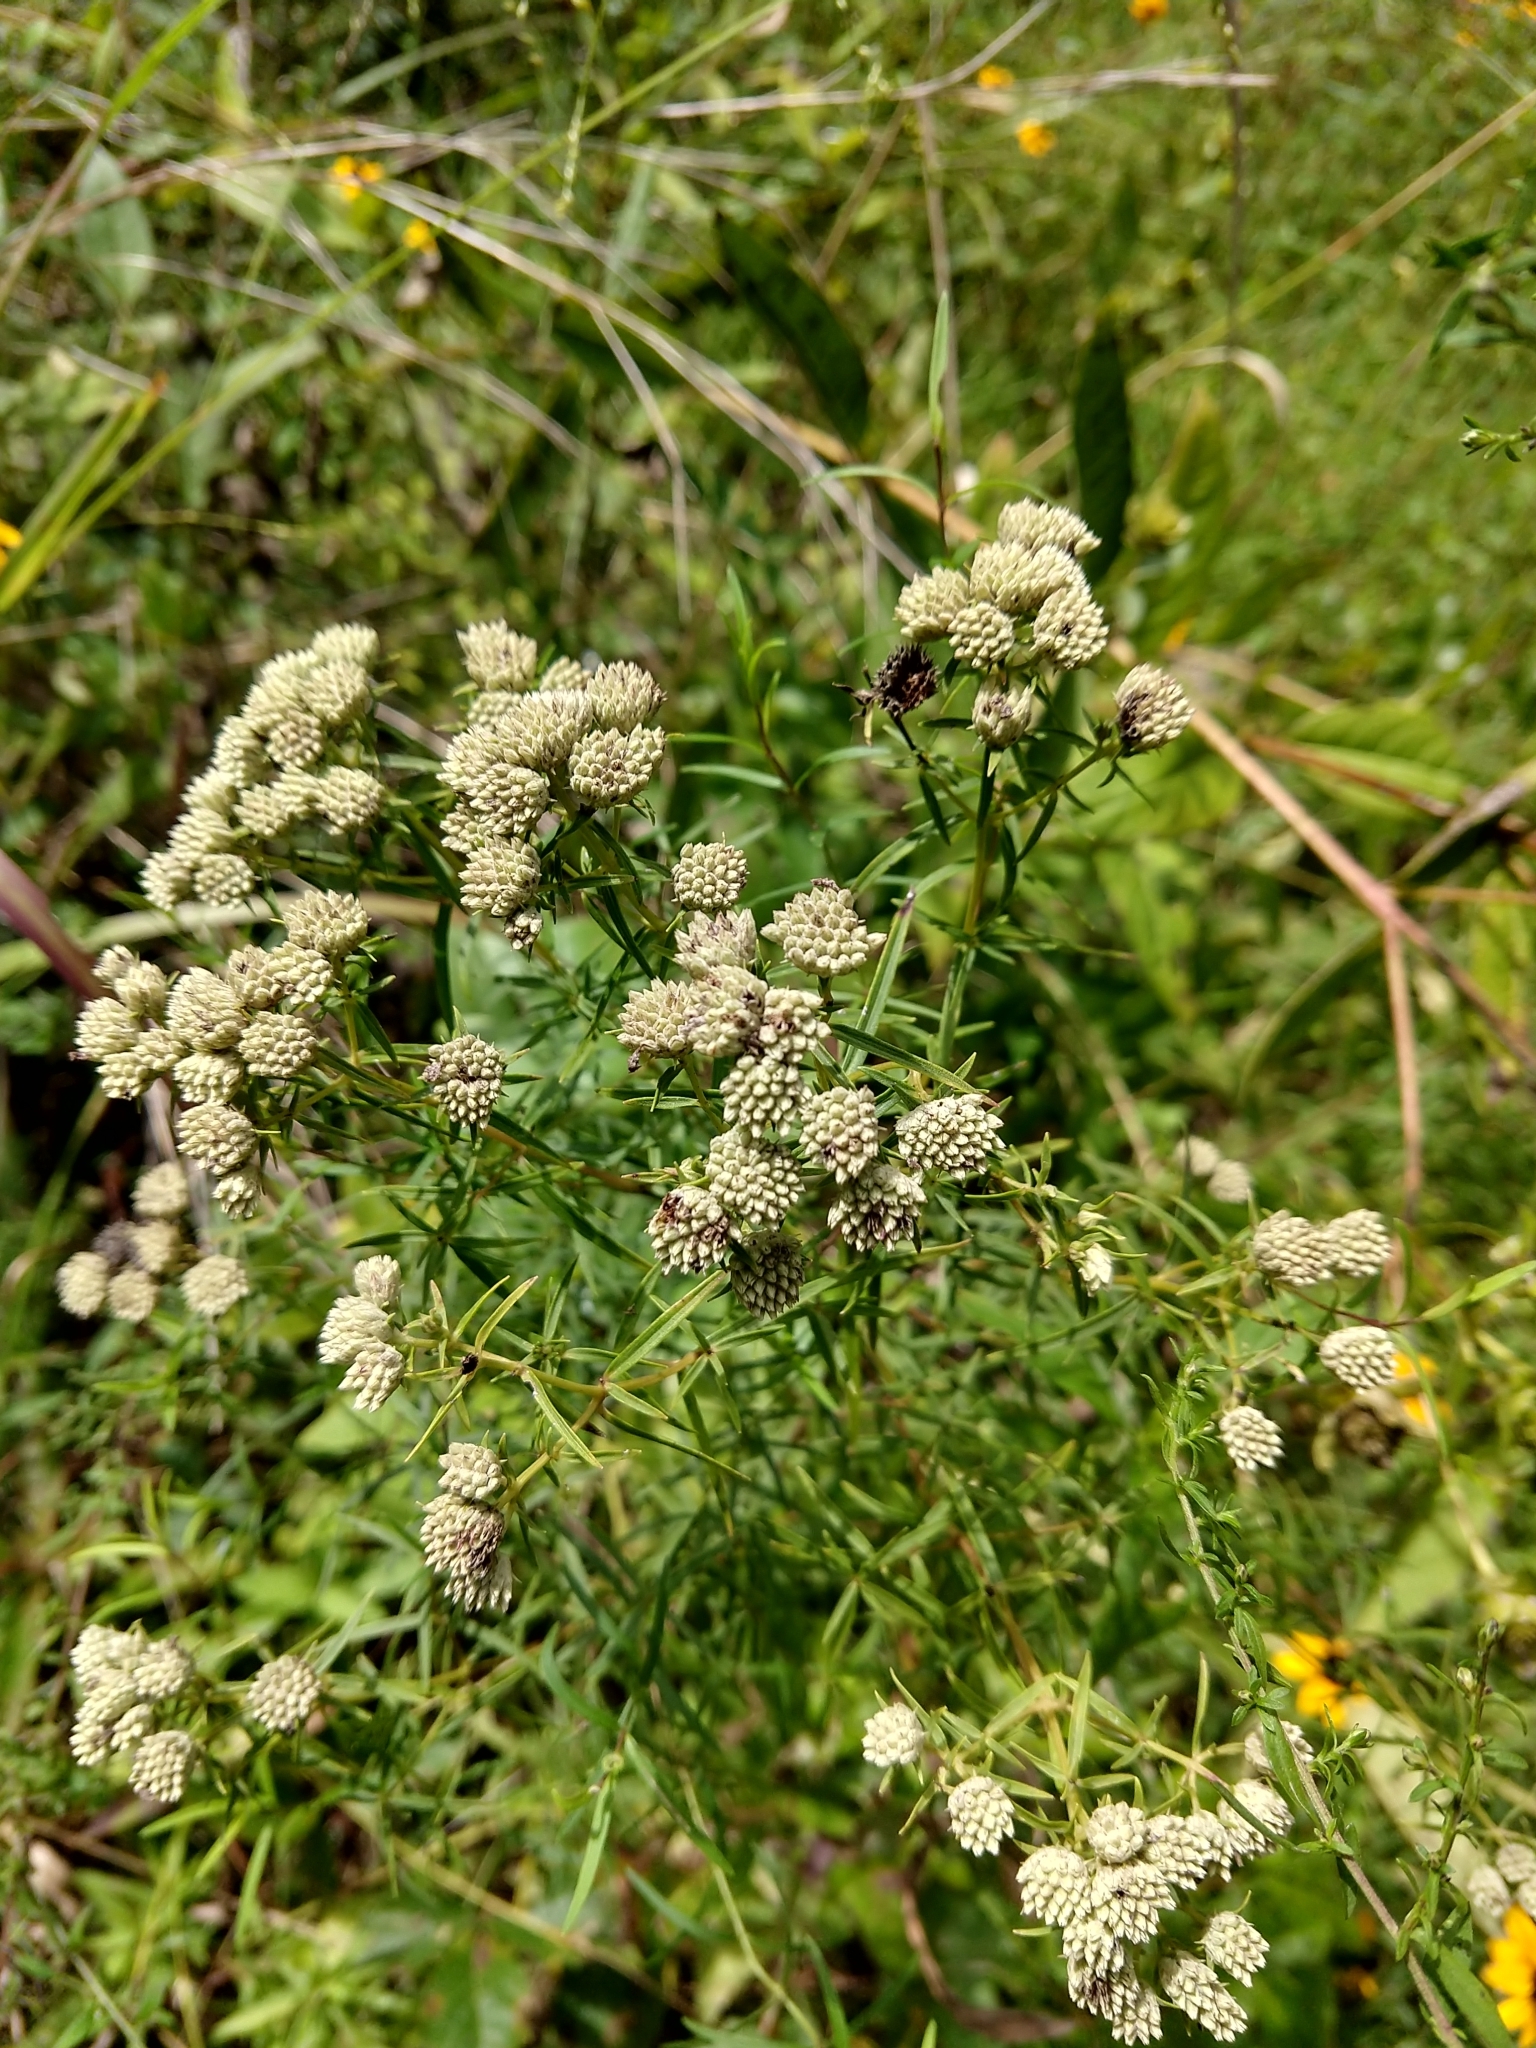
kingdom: Plantae
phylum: Tracheophyta
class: Magnoliopsida
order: Lamiales
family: Lamiaceae
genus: Pycnanthemum
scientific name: Pycnanthemum tenuifolium
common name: Narrow-leaf mountain-mint
